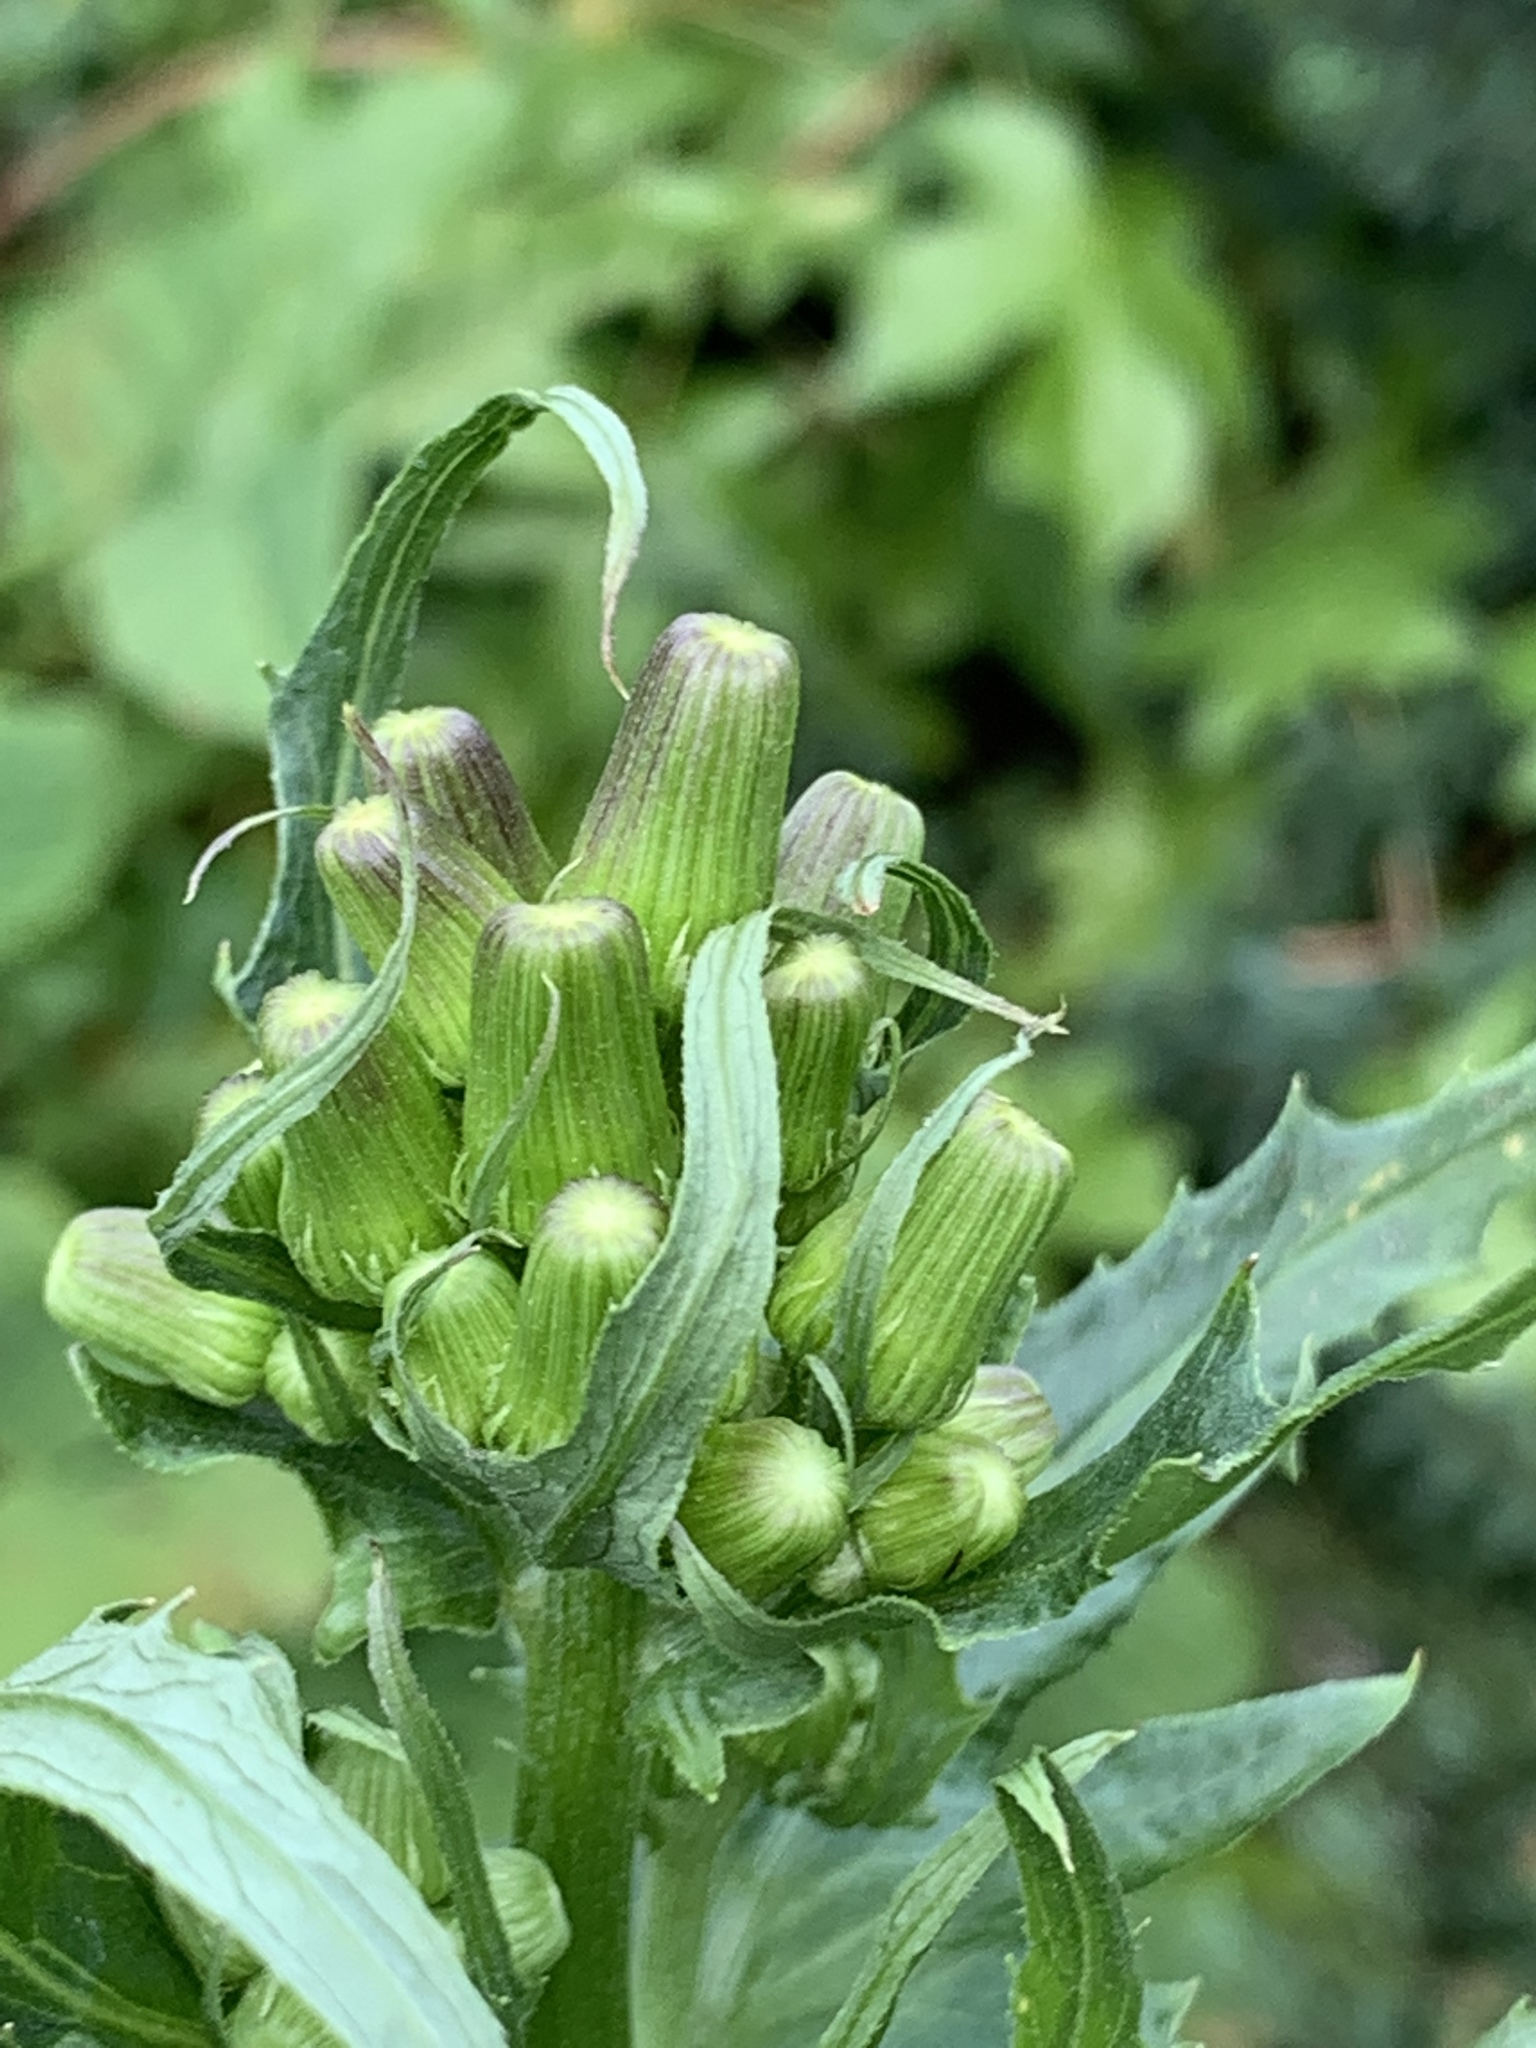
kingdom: Plantae
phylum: Tracheophyta
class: Magnoliopsida
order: Asterales
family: Asteraceae
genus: Erechtites
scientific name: Erechtites hieraciifolius
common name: American burnweed
